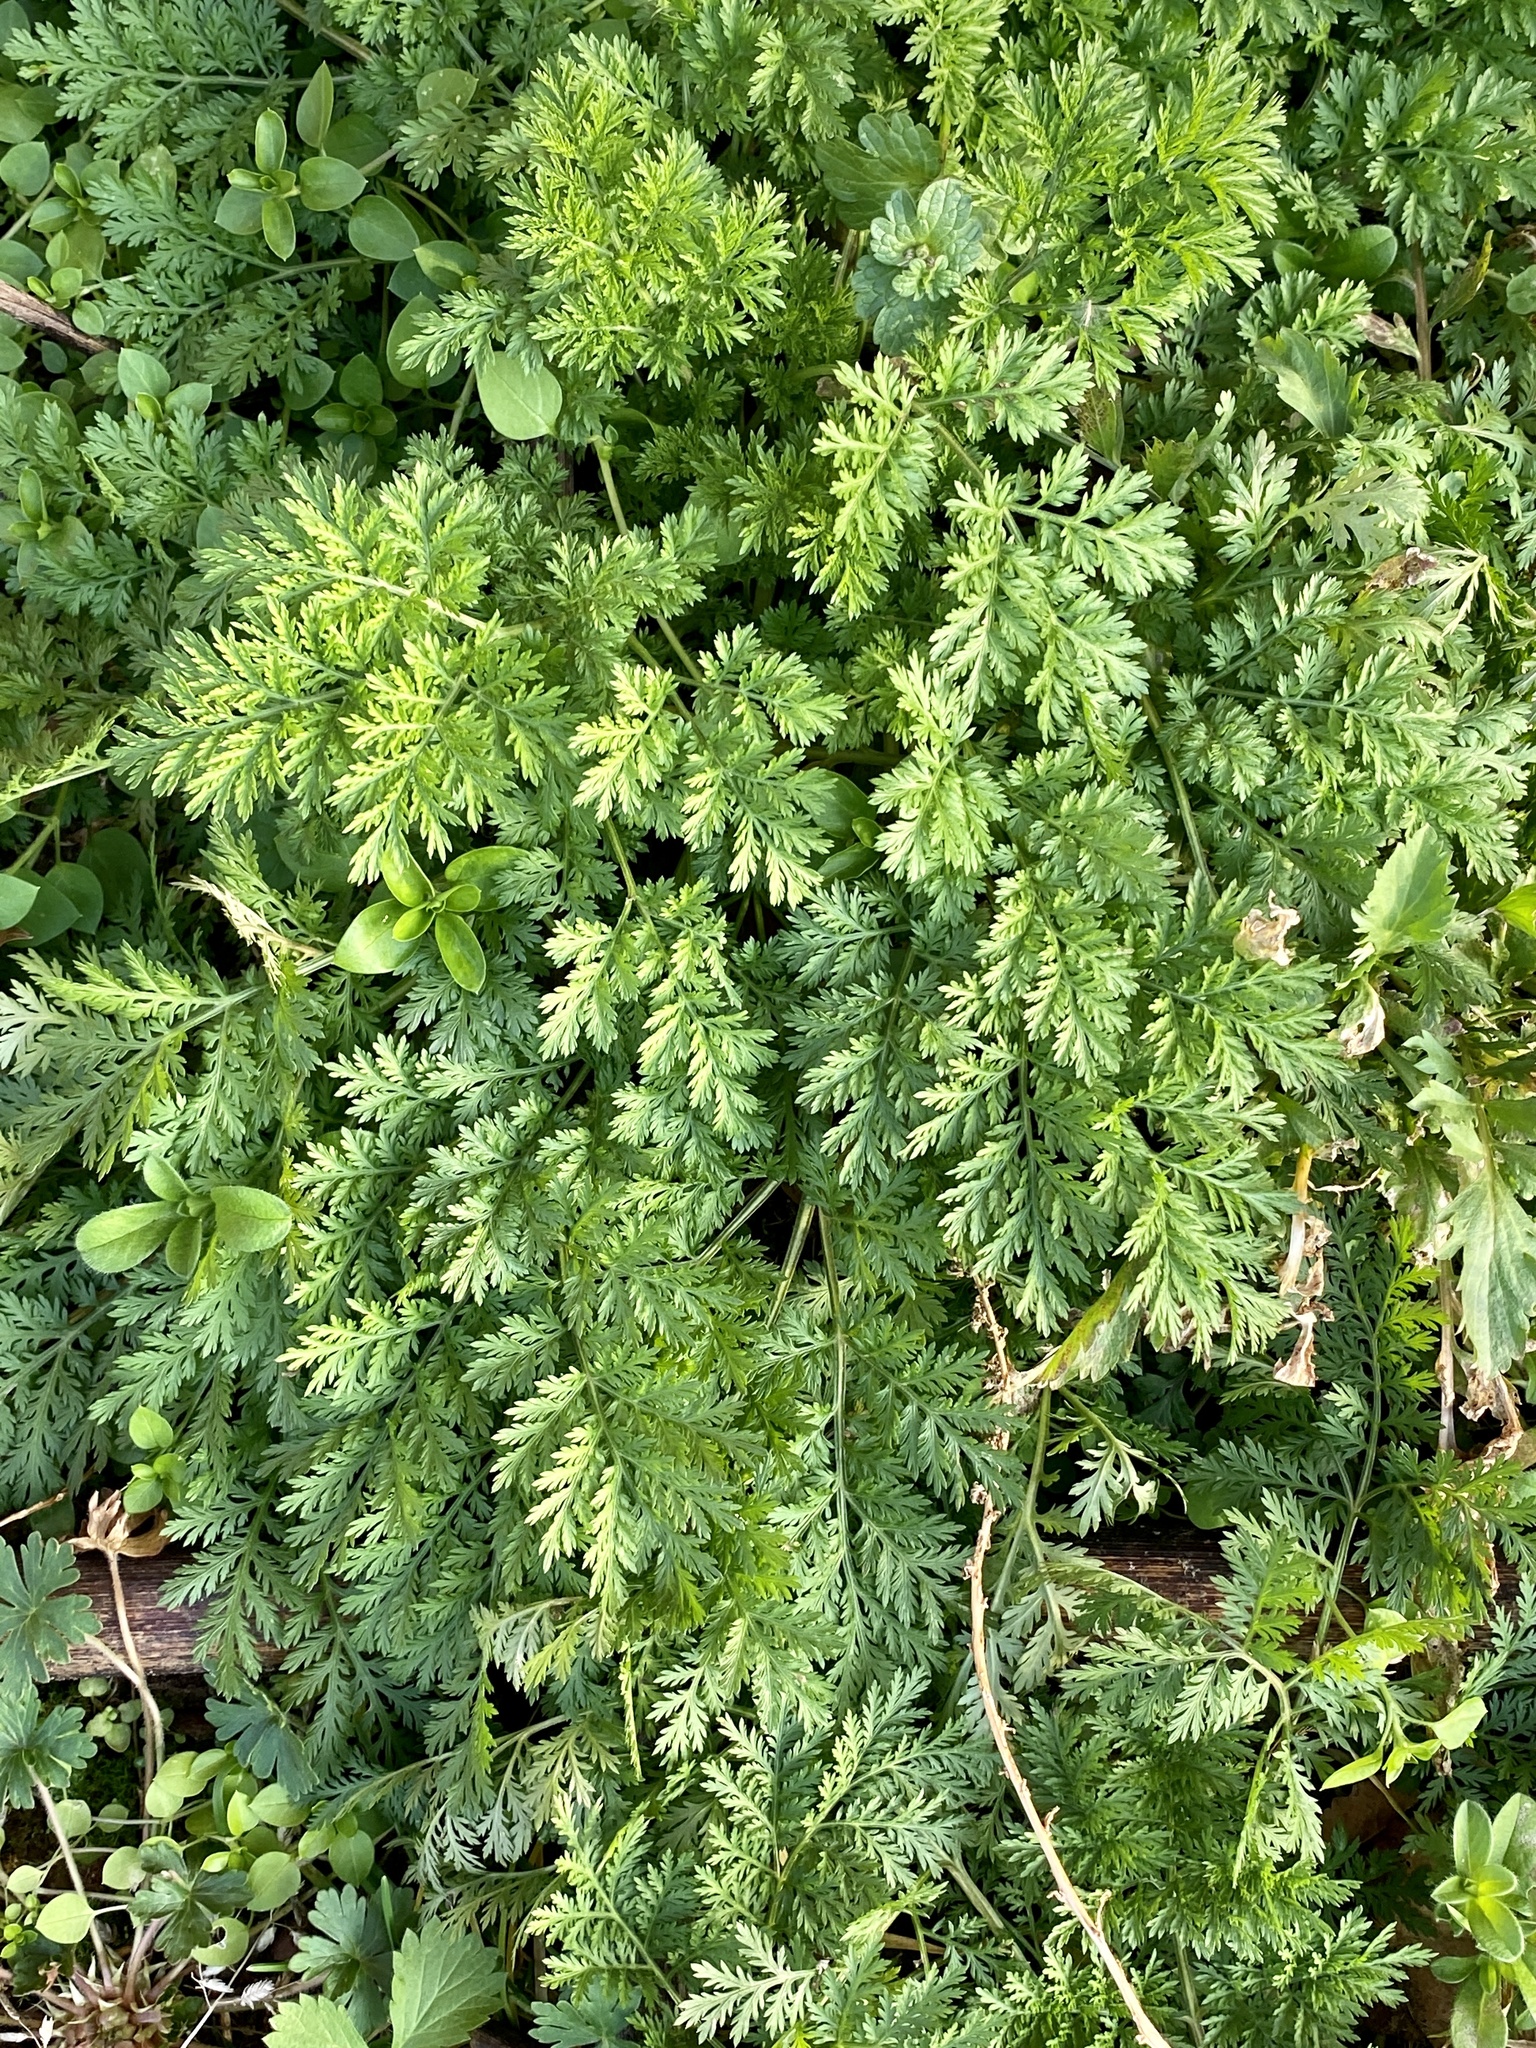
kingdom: Plantae
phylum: Tracheophyta
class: Magnoliopsida
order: Asterales
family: Asteraceae
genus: Artemisia
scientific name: Artemisia annua
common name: Sweet sagewort
